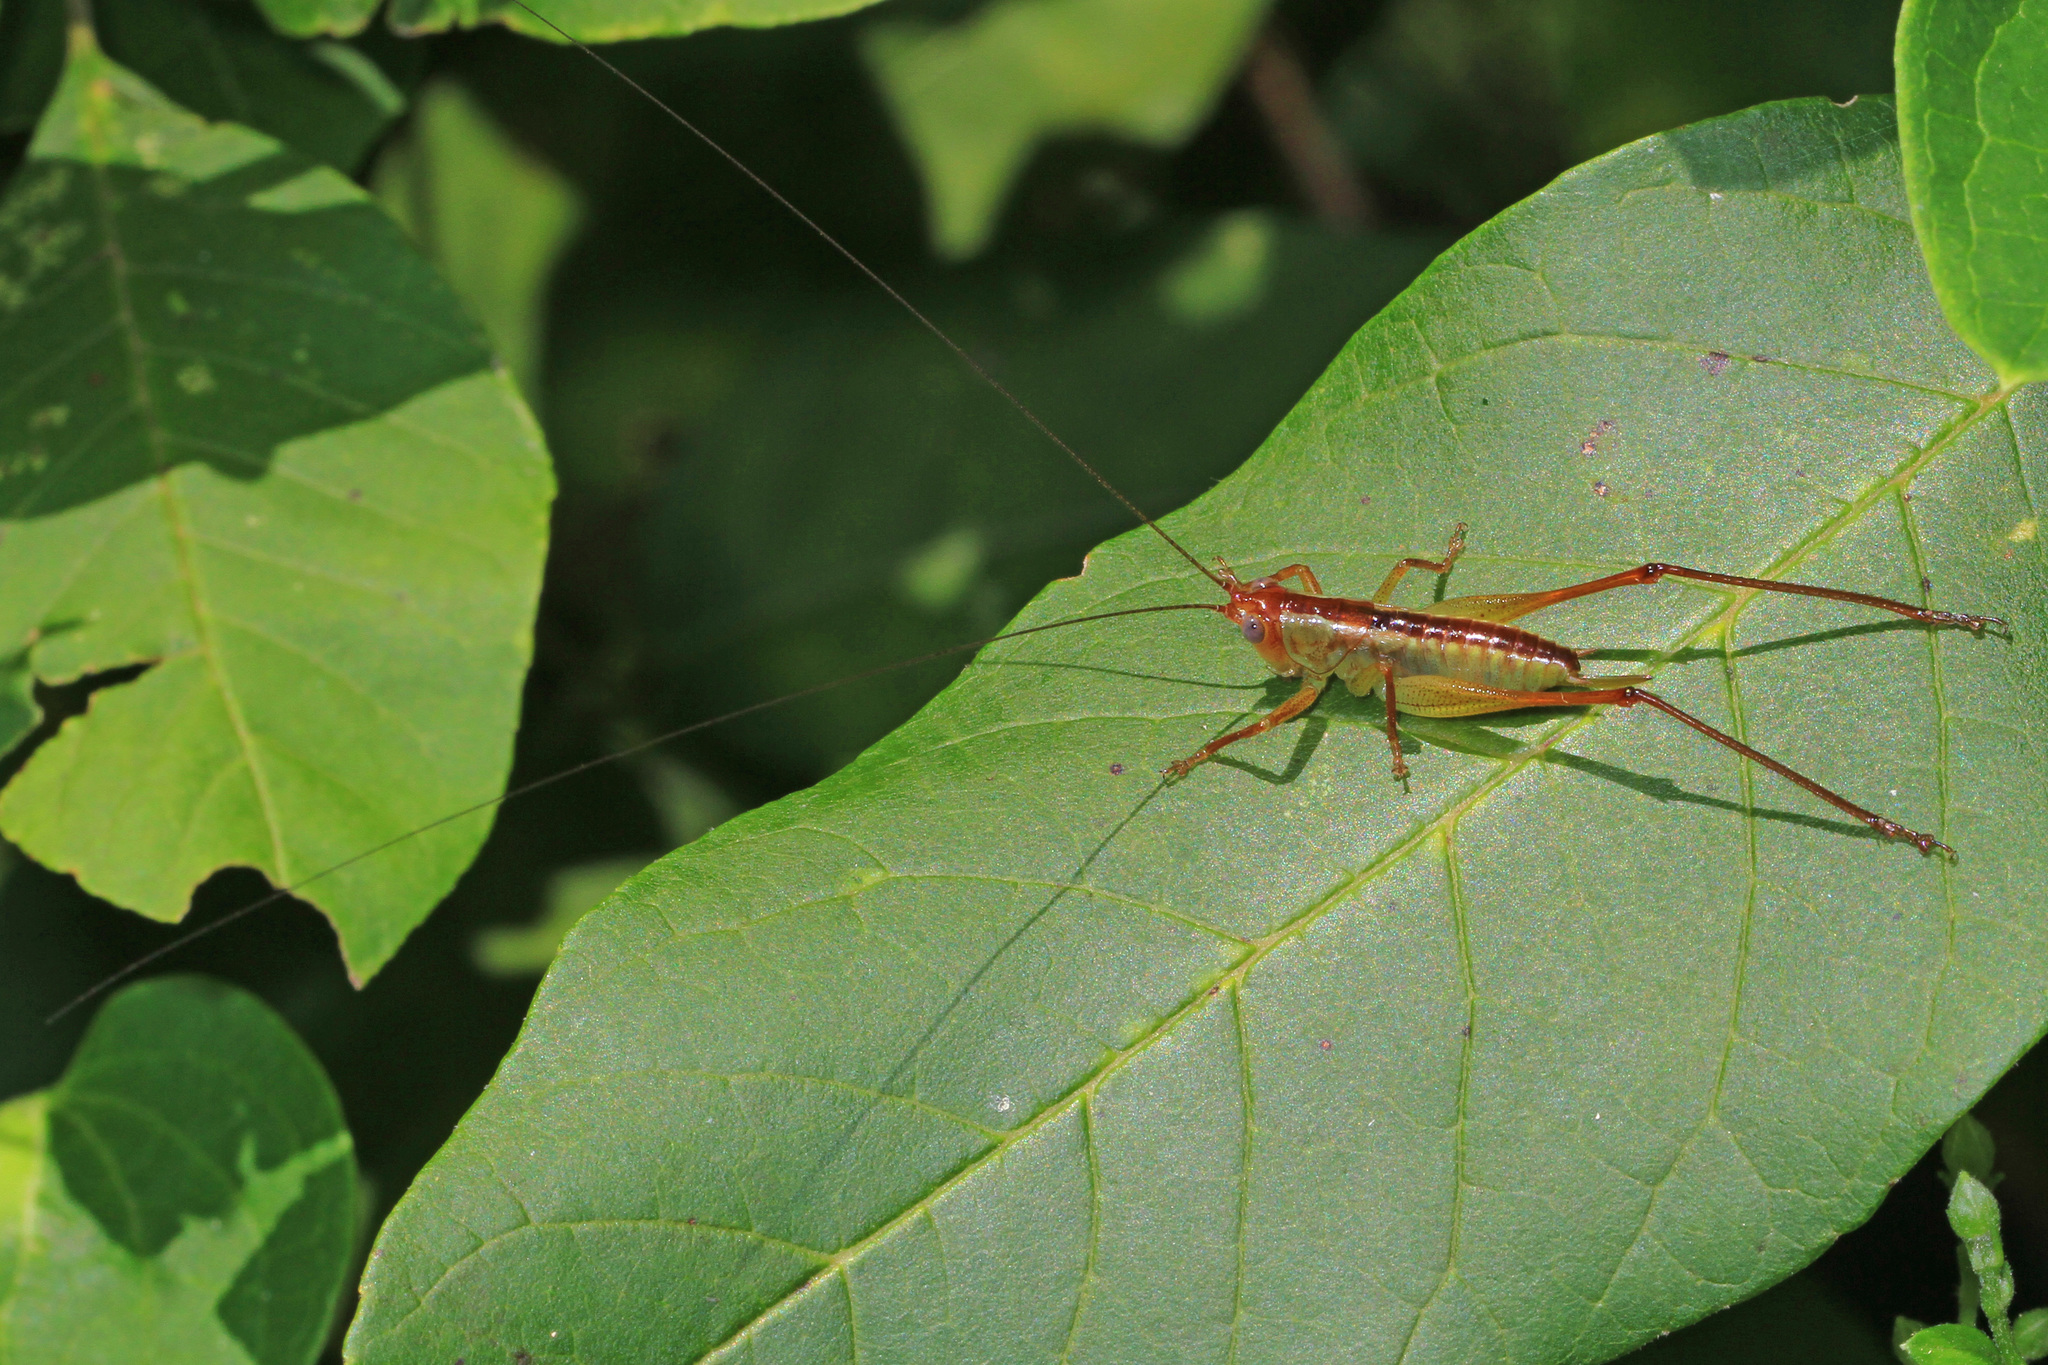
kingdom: Animalia
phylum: Arthropoda
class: Insecta
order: Orthoptera
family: Tettigoniidae
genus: Orchelimum
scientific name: Orchelimum pulchellum
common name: Handsome meadow katydid
